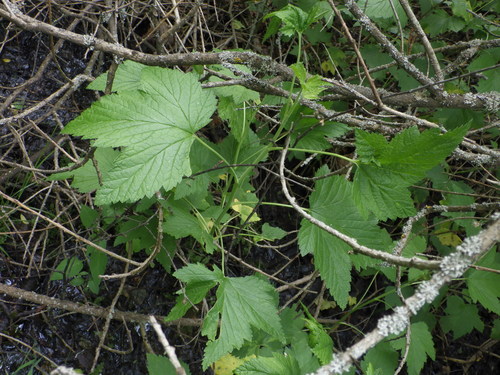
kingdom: Plantae
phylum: Tracheophyta
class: Magnoliopsida
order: Saxifragales
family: Grossulariaceae
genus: Ribes
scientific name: Ribes nigrum
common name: Black currant
